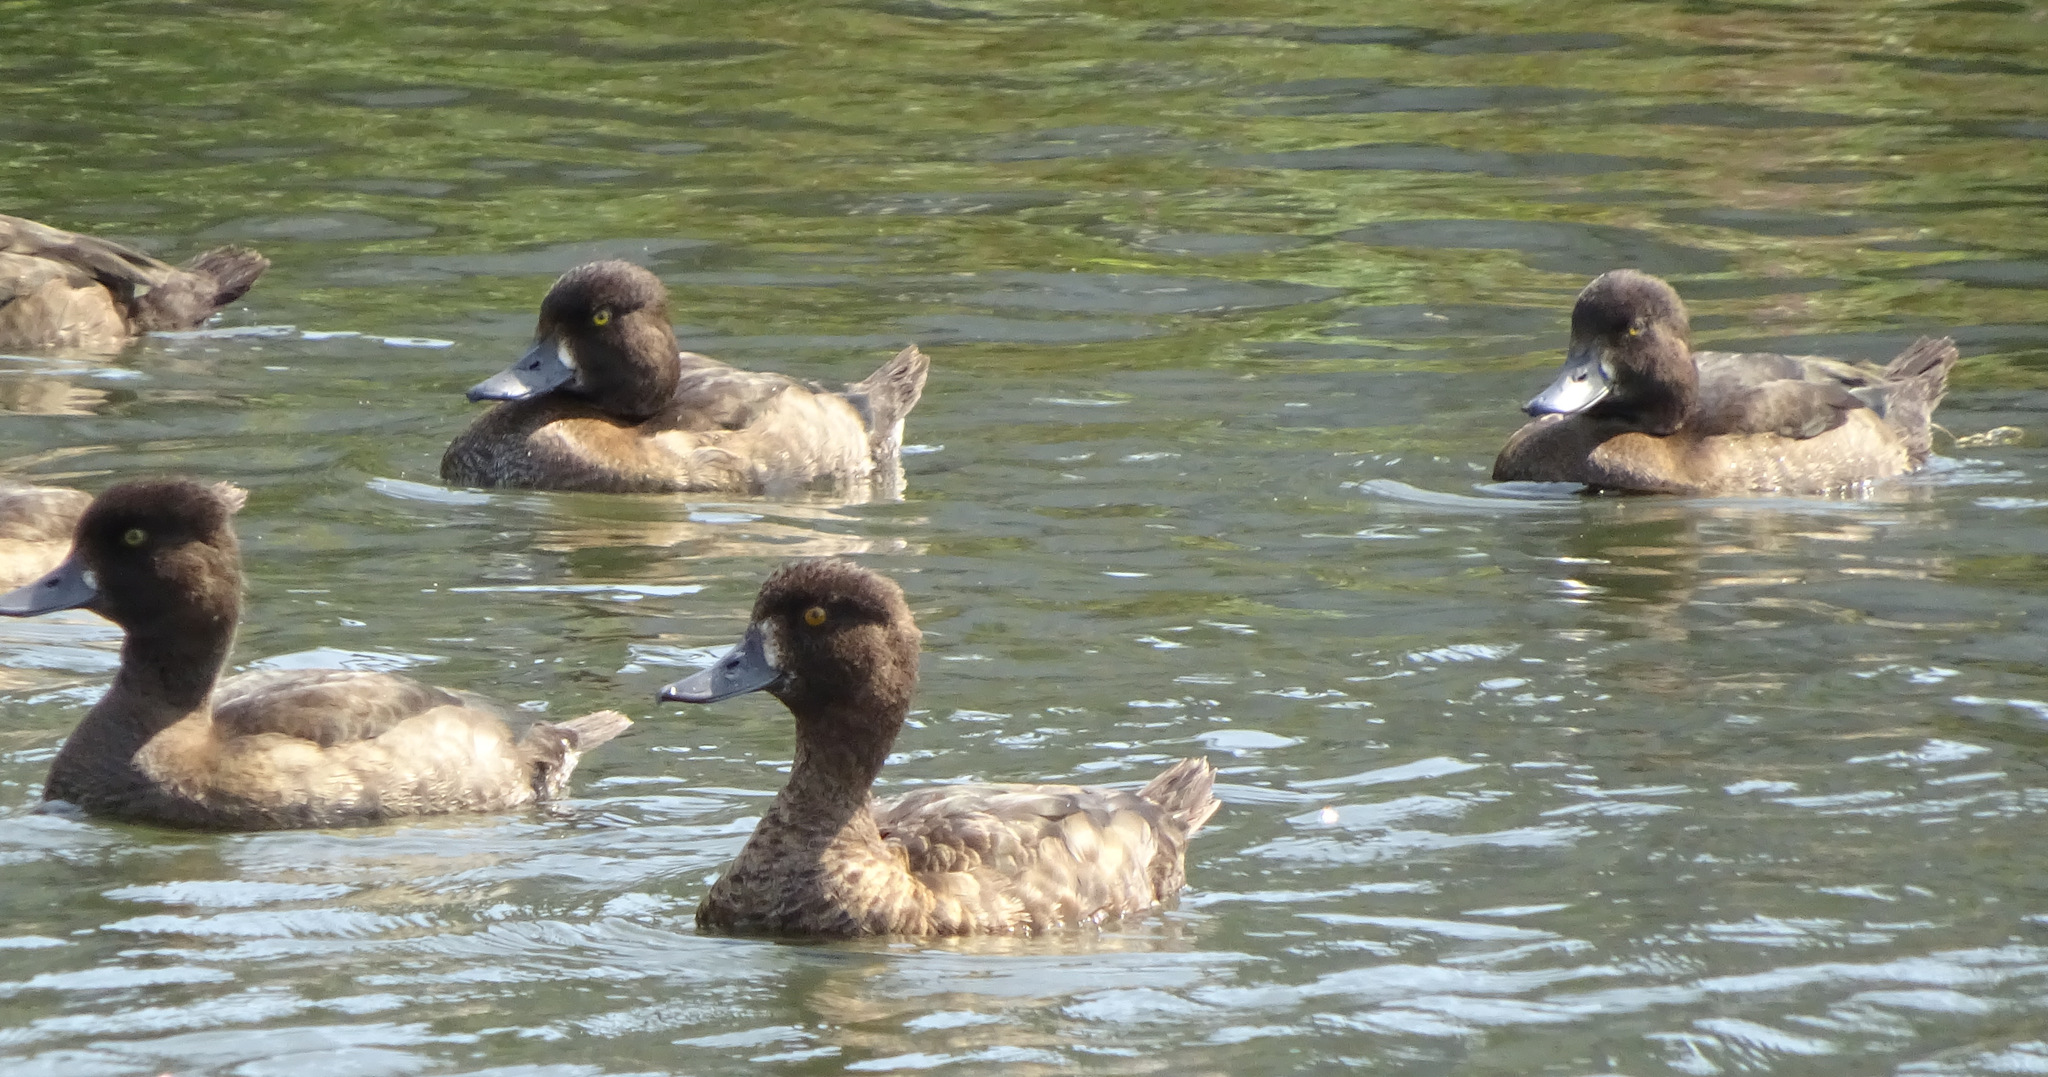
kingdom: Animalia
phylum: Chordata
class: Aves
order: Anseriformes
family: Anatidae
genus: Aythya
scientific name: Aythya fuligula
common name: Tufted duck
